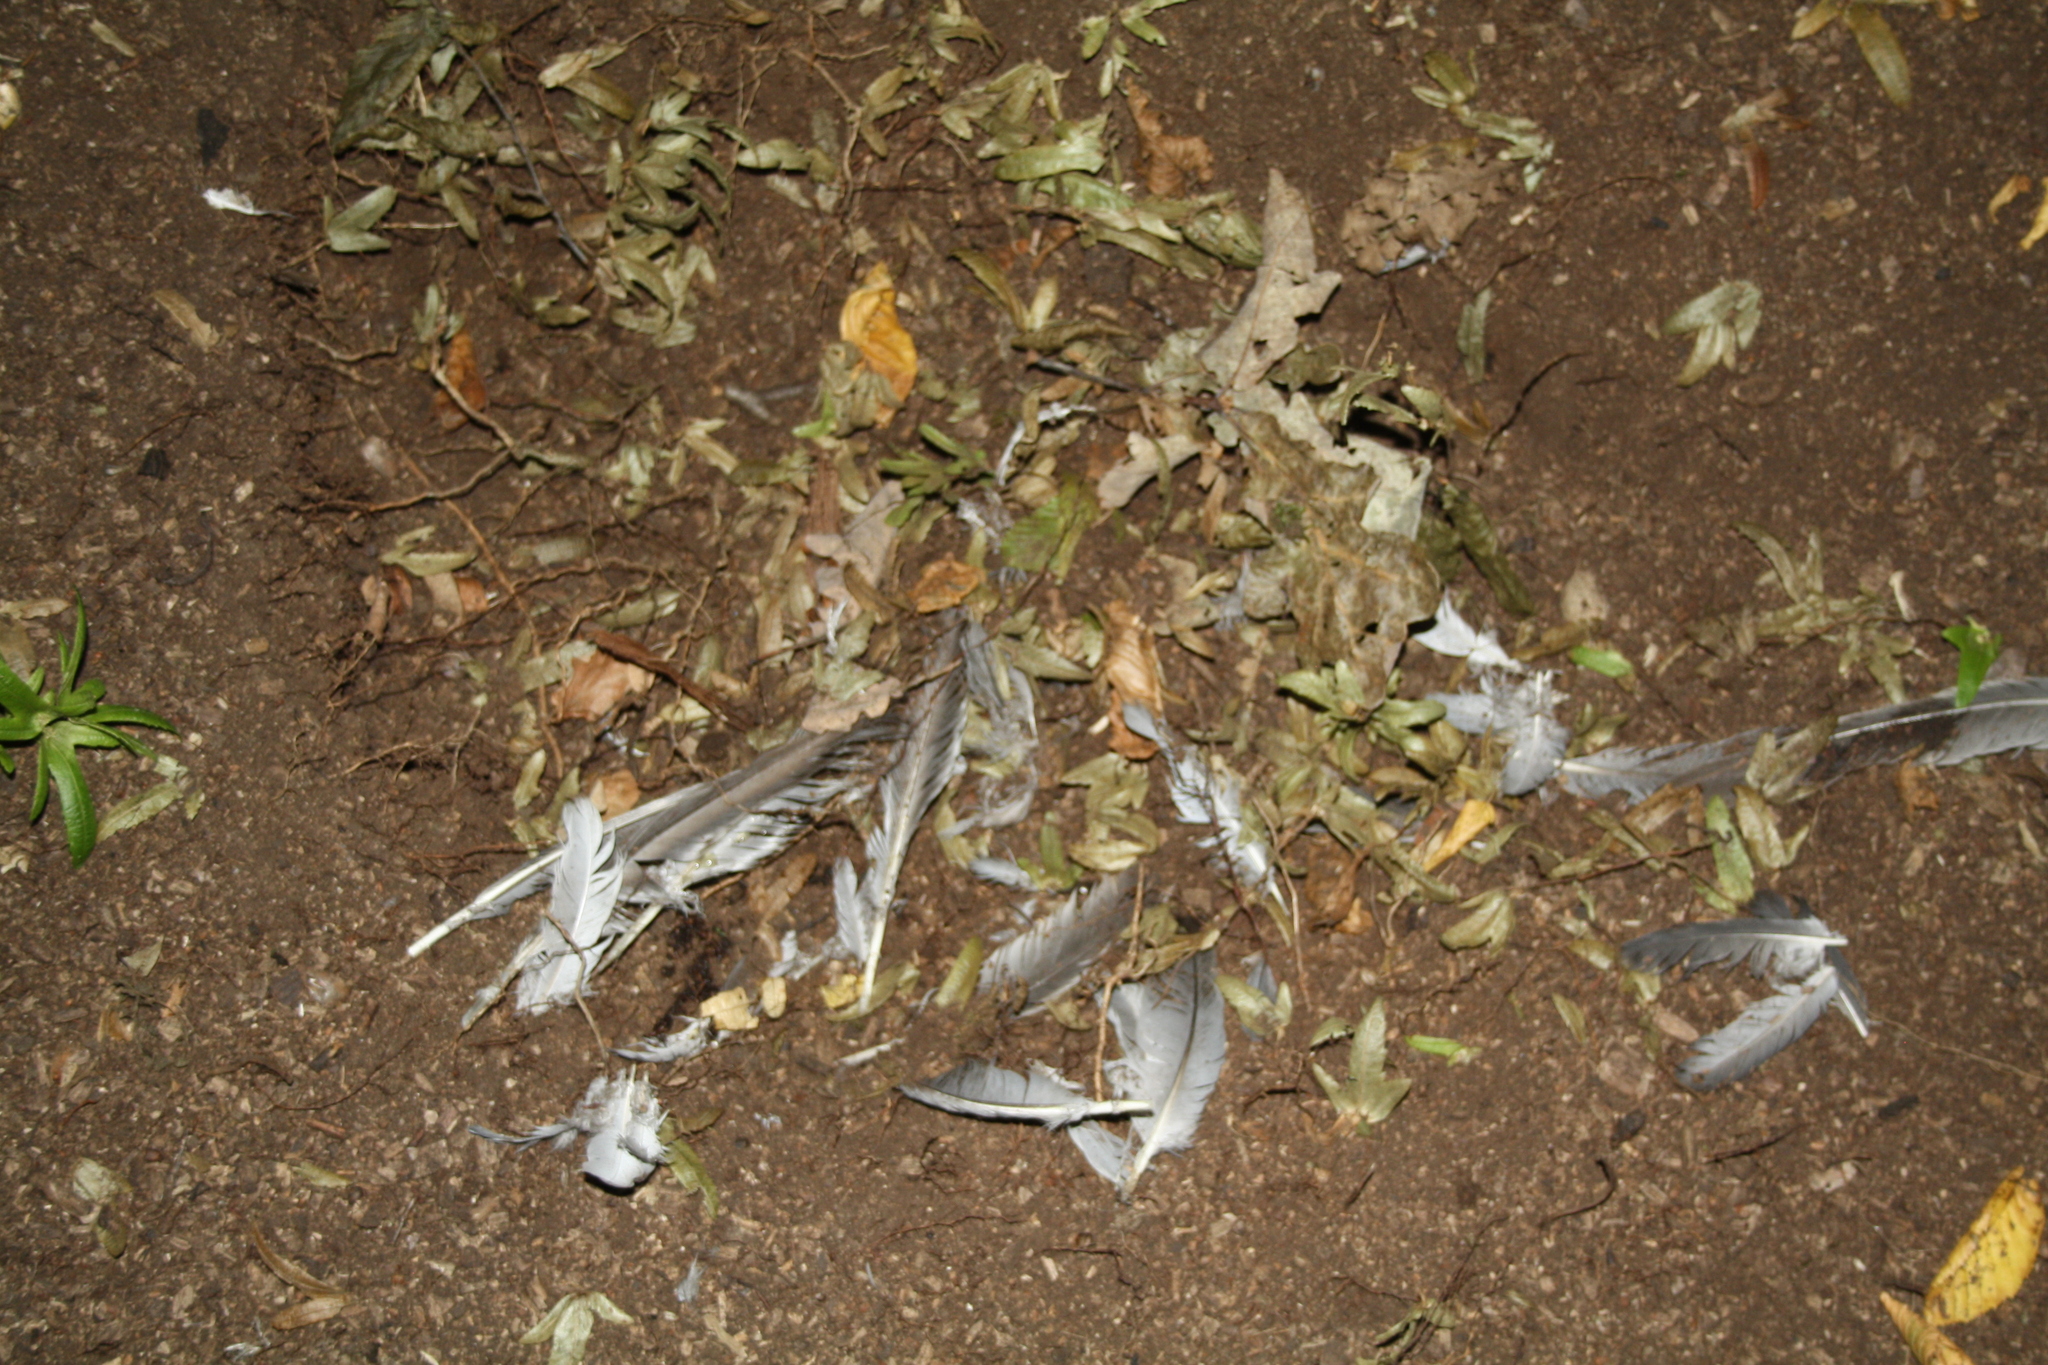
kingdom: Animalia
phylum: Chordata
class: Aves
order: Columbiformes
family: Columbidae
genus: Columba
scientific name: Columba livia
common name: Rock pigeon
